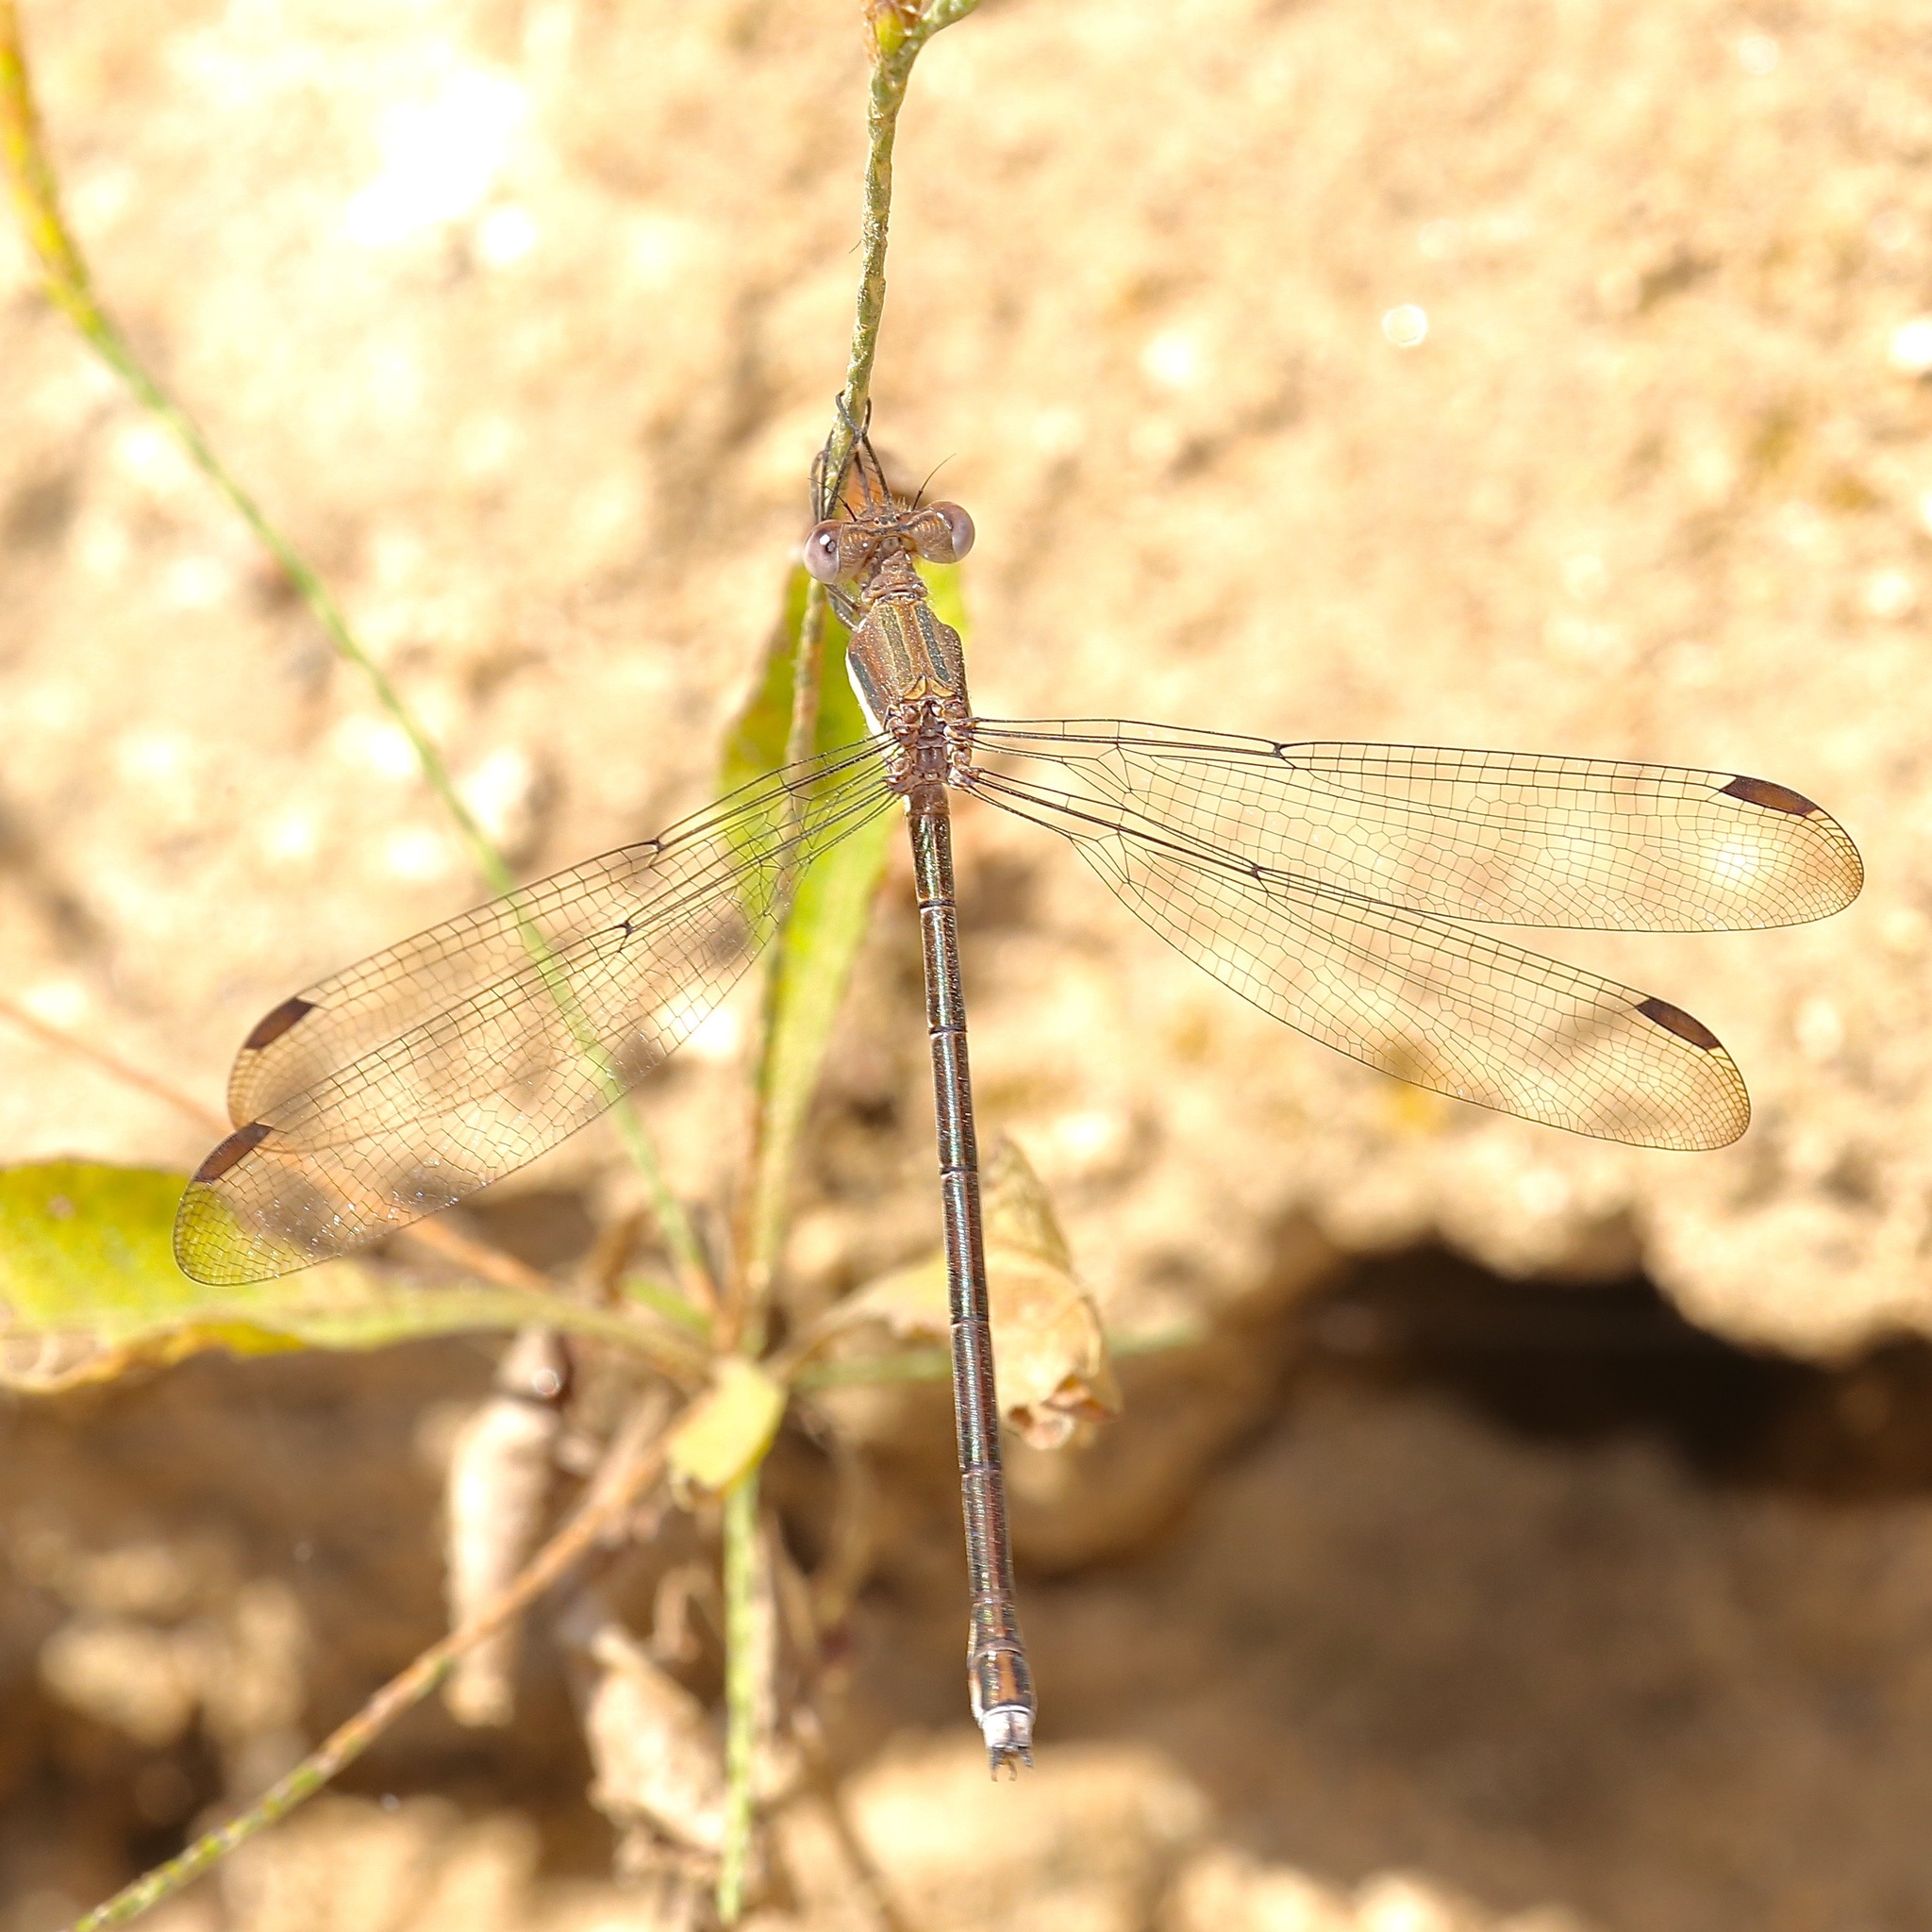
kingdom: Animalia
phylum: Arthropoda
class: Insecta
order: Odonata
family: Lestidae
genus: Archilestes
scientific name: Archilestes grandis
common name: Great spreadwing
